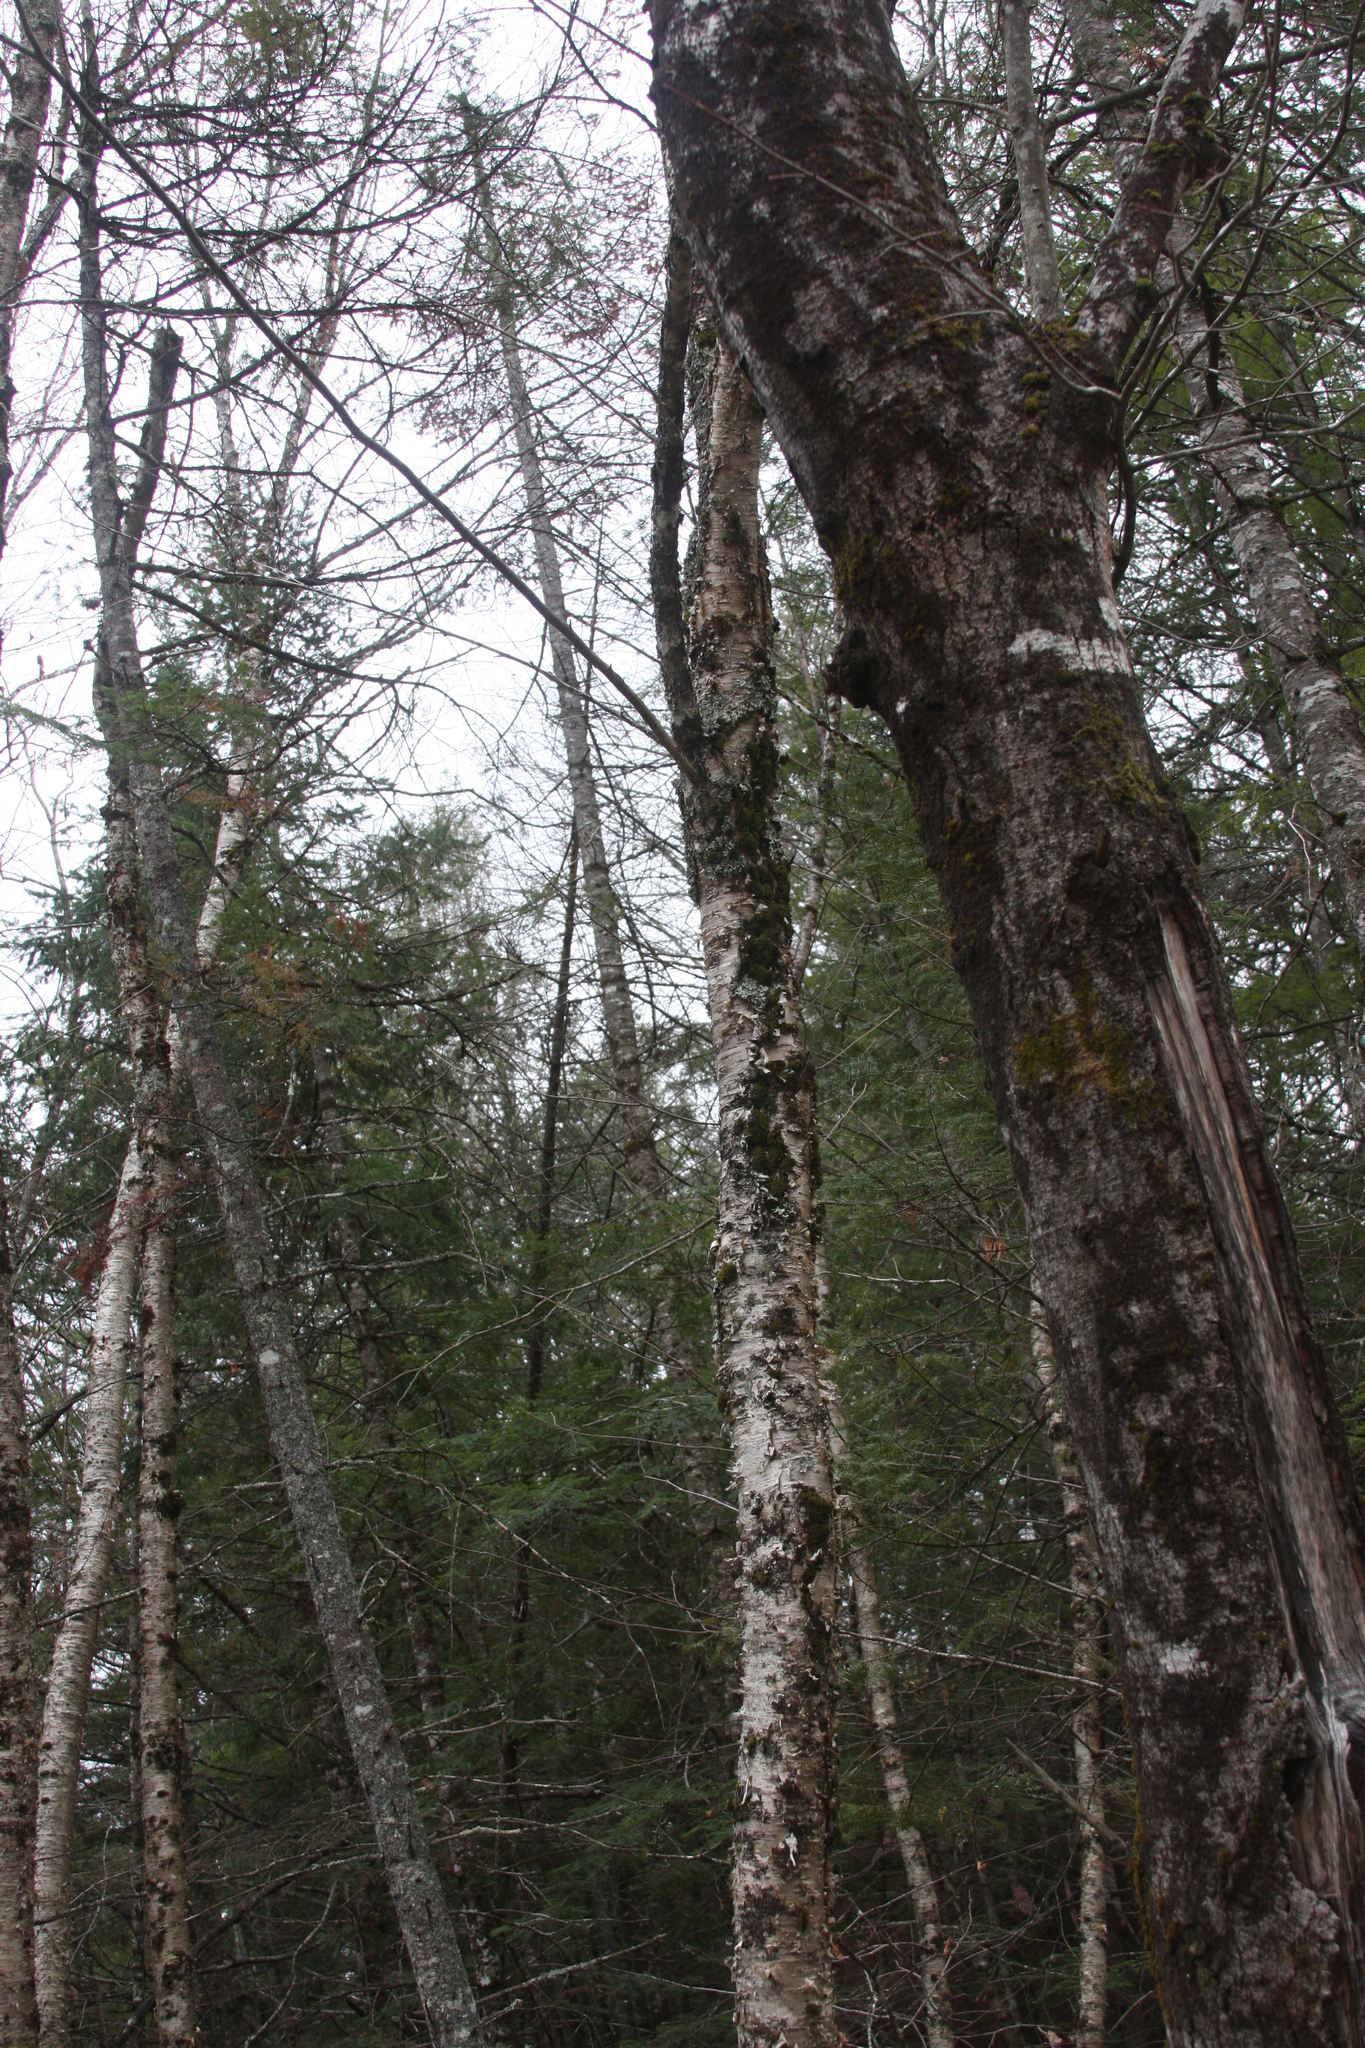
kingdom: Plantae
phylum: Tracheophyta
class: Magnoliopsida
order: Fagales
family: Betulaceae
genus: Betula
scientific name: Betula alleghaniensis
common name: Yellow birch
